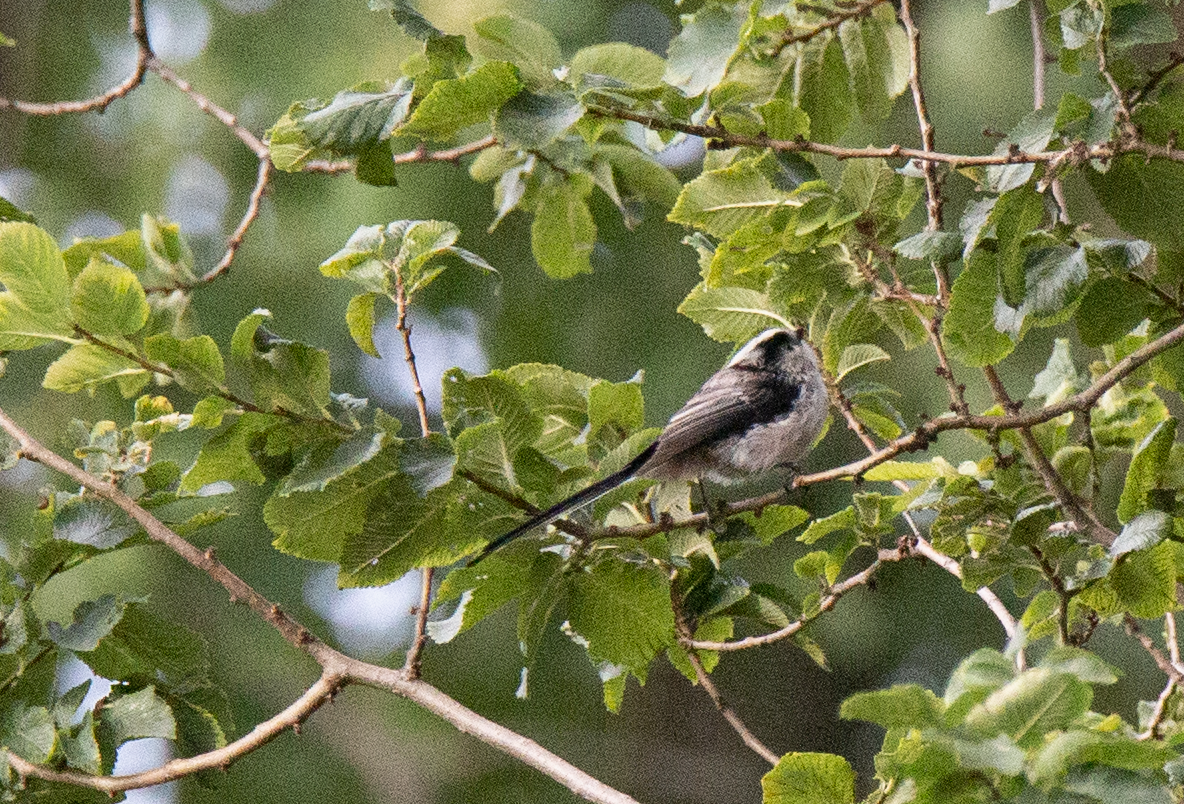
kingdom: Animalia
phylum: Chordata
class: Aves
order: Passeriformes
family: Aegithalidae
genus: Aegithalos
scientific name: Aegithalos caudatus
